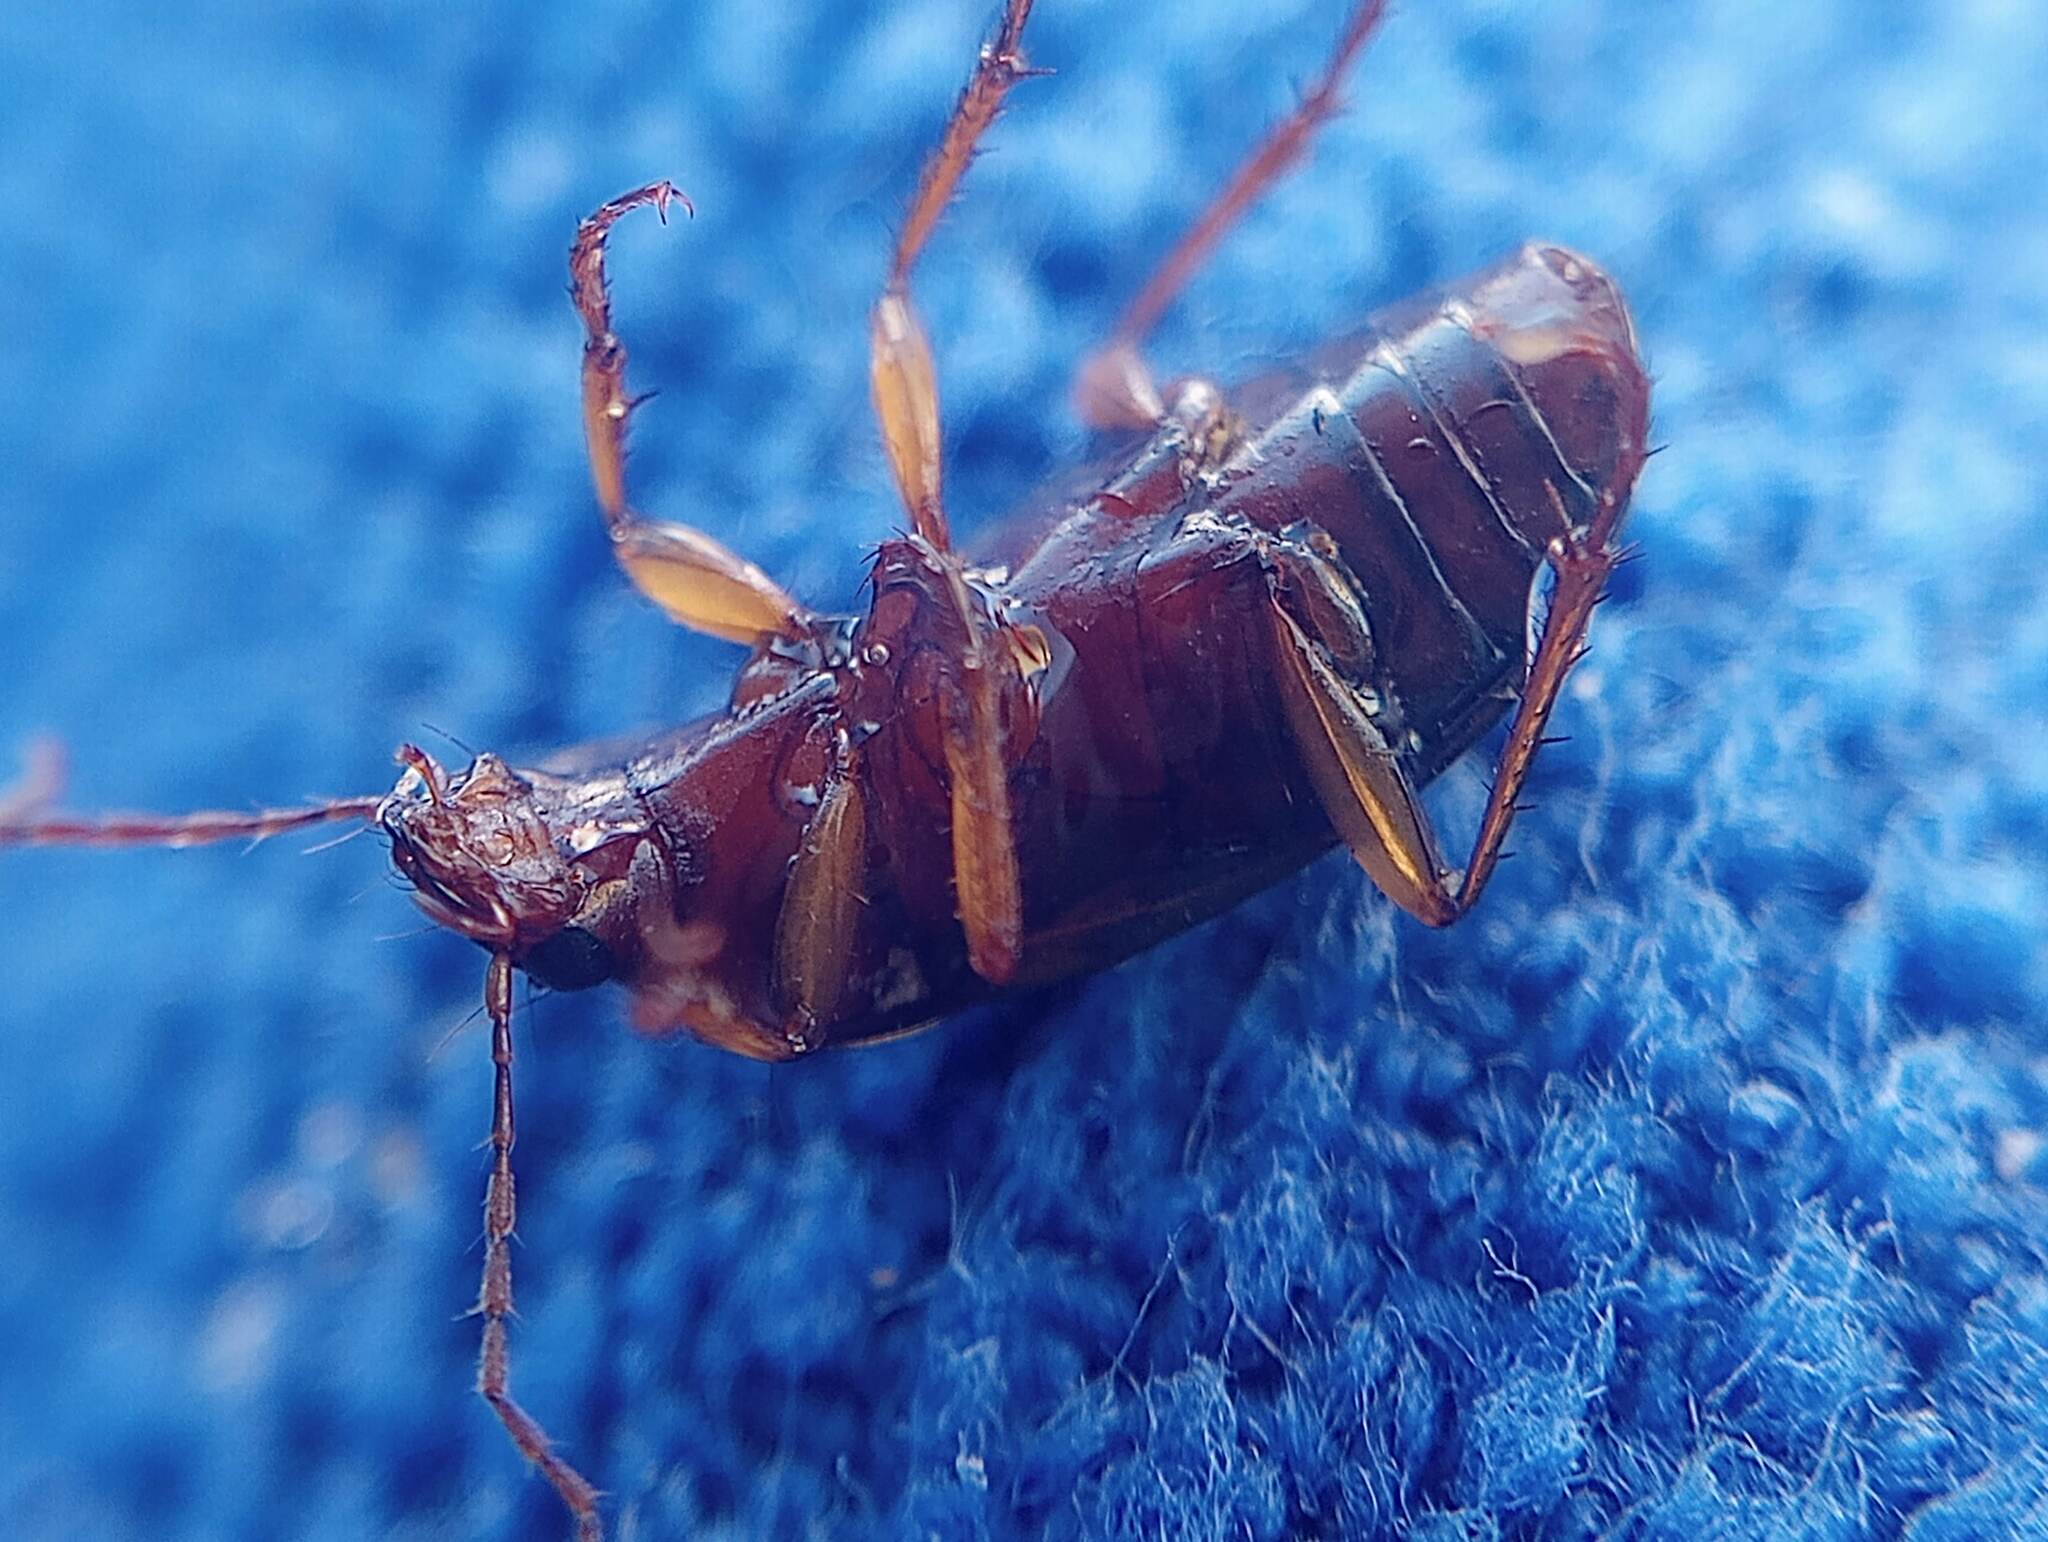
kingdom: Animalia
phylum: Arthropoda
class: Insecta
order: Coleoptera
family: Carabidae
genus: Calathus
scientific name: Calathus ruficollis
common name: Red-collared harp ground beetle
